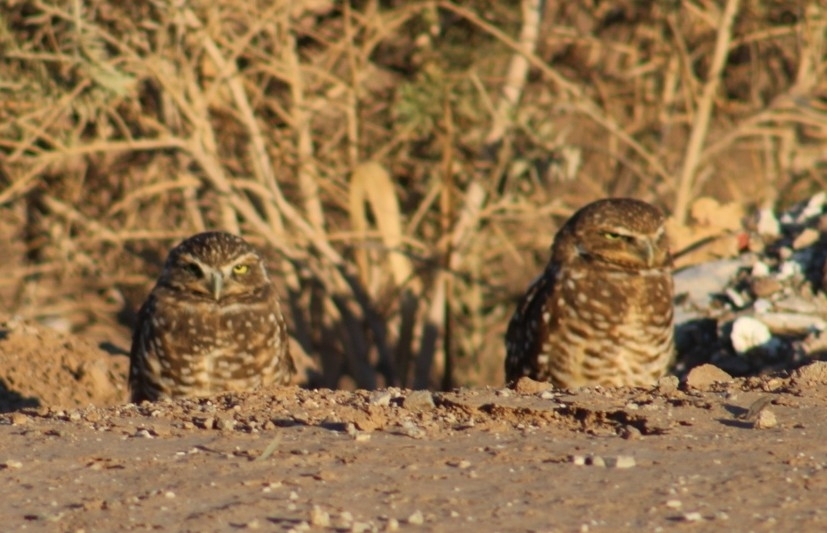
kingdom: Animalia
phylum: Chordata
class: Aves
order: Strigiformes
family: Strigidae
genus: Athene
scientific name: Athene cunicularia
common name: Burrowing owl
